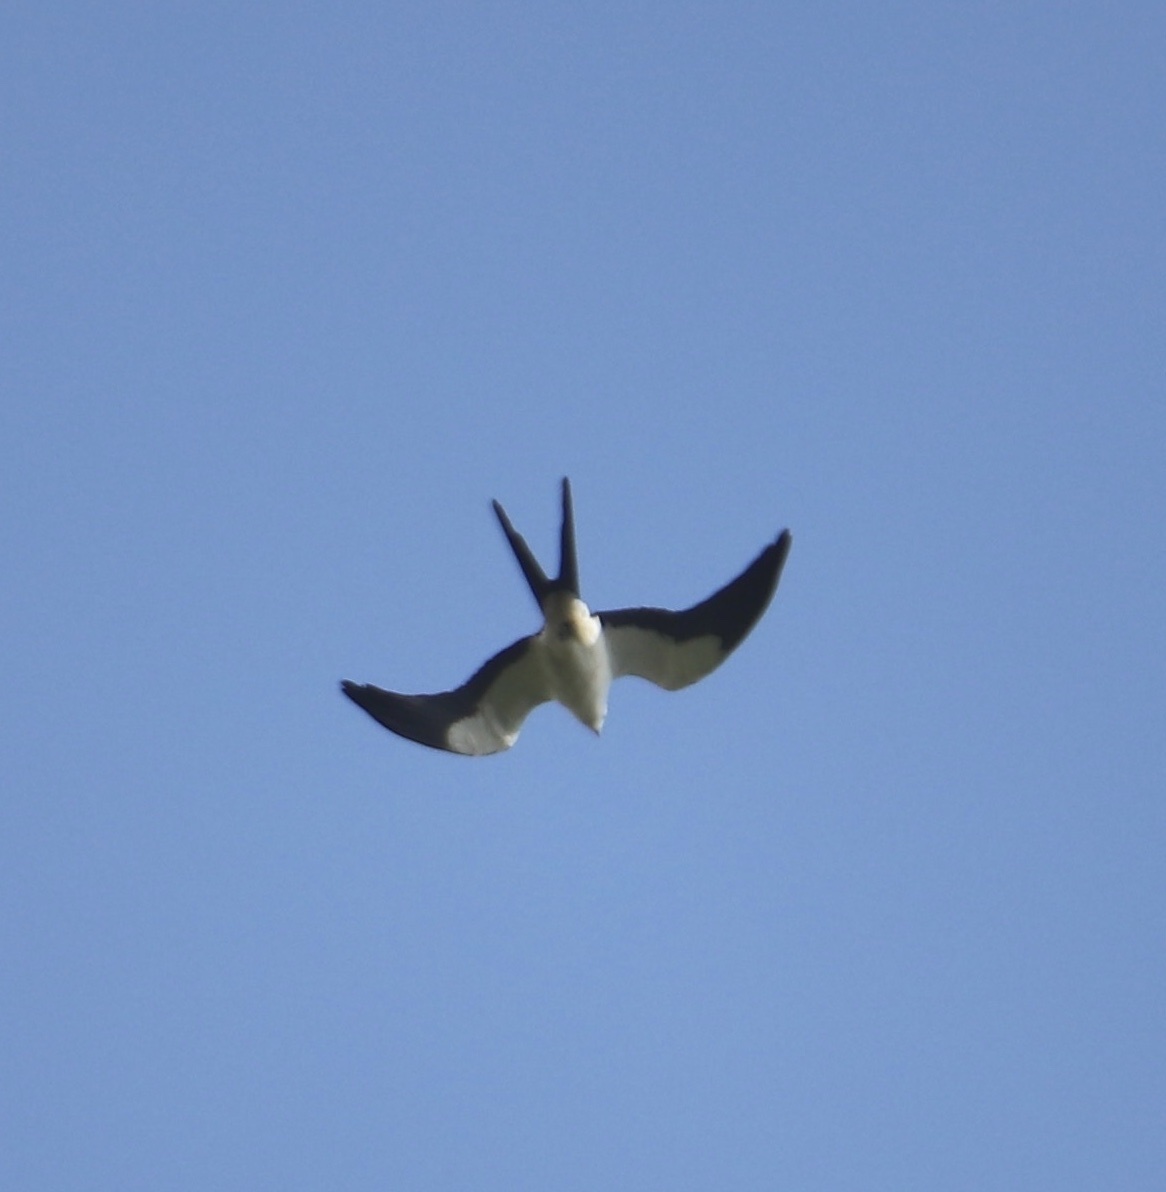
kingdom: Animalia
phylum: Chordata
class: Aves
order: Accipitriformes
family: Accipitridae
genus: Elanoides
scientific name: Elanoides forficatus
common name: Swallow-tailed kite
